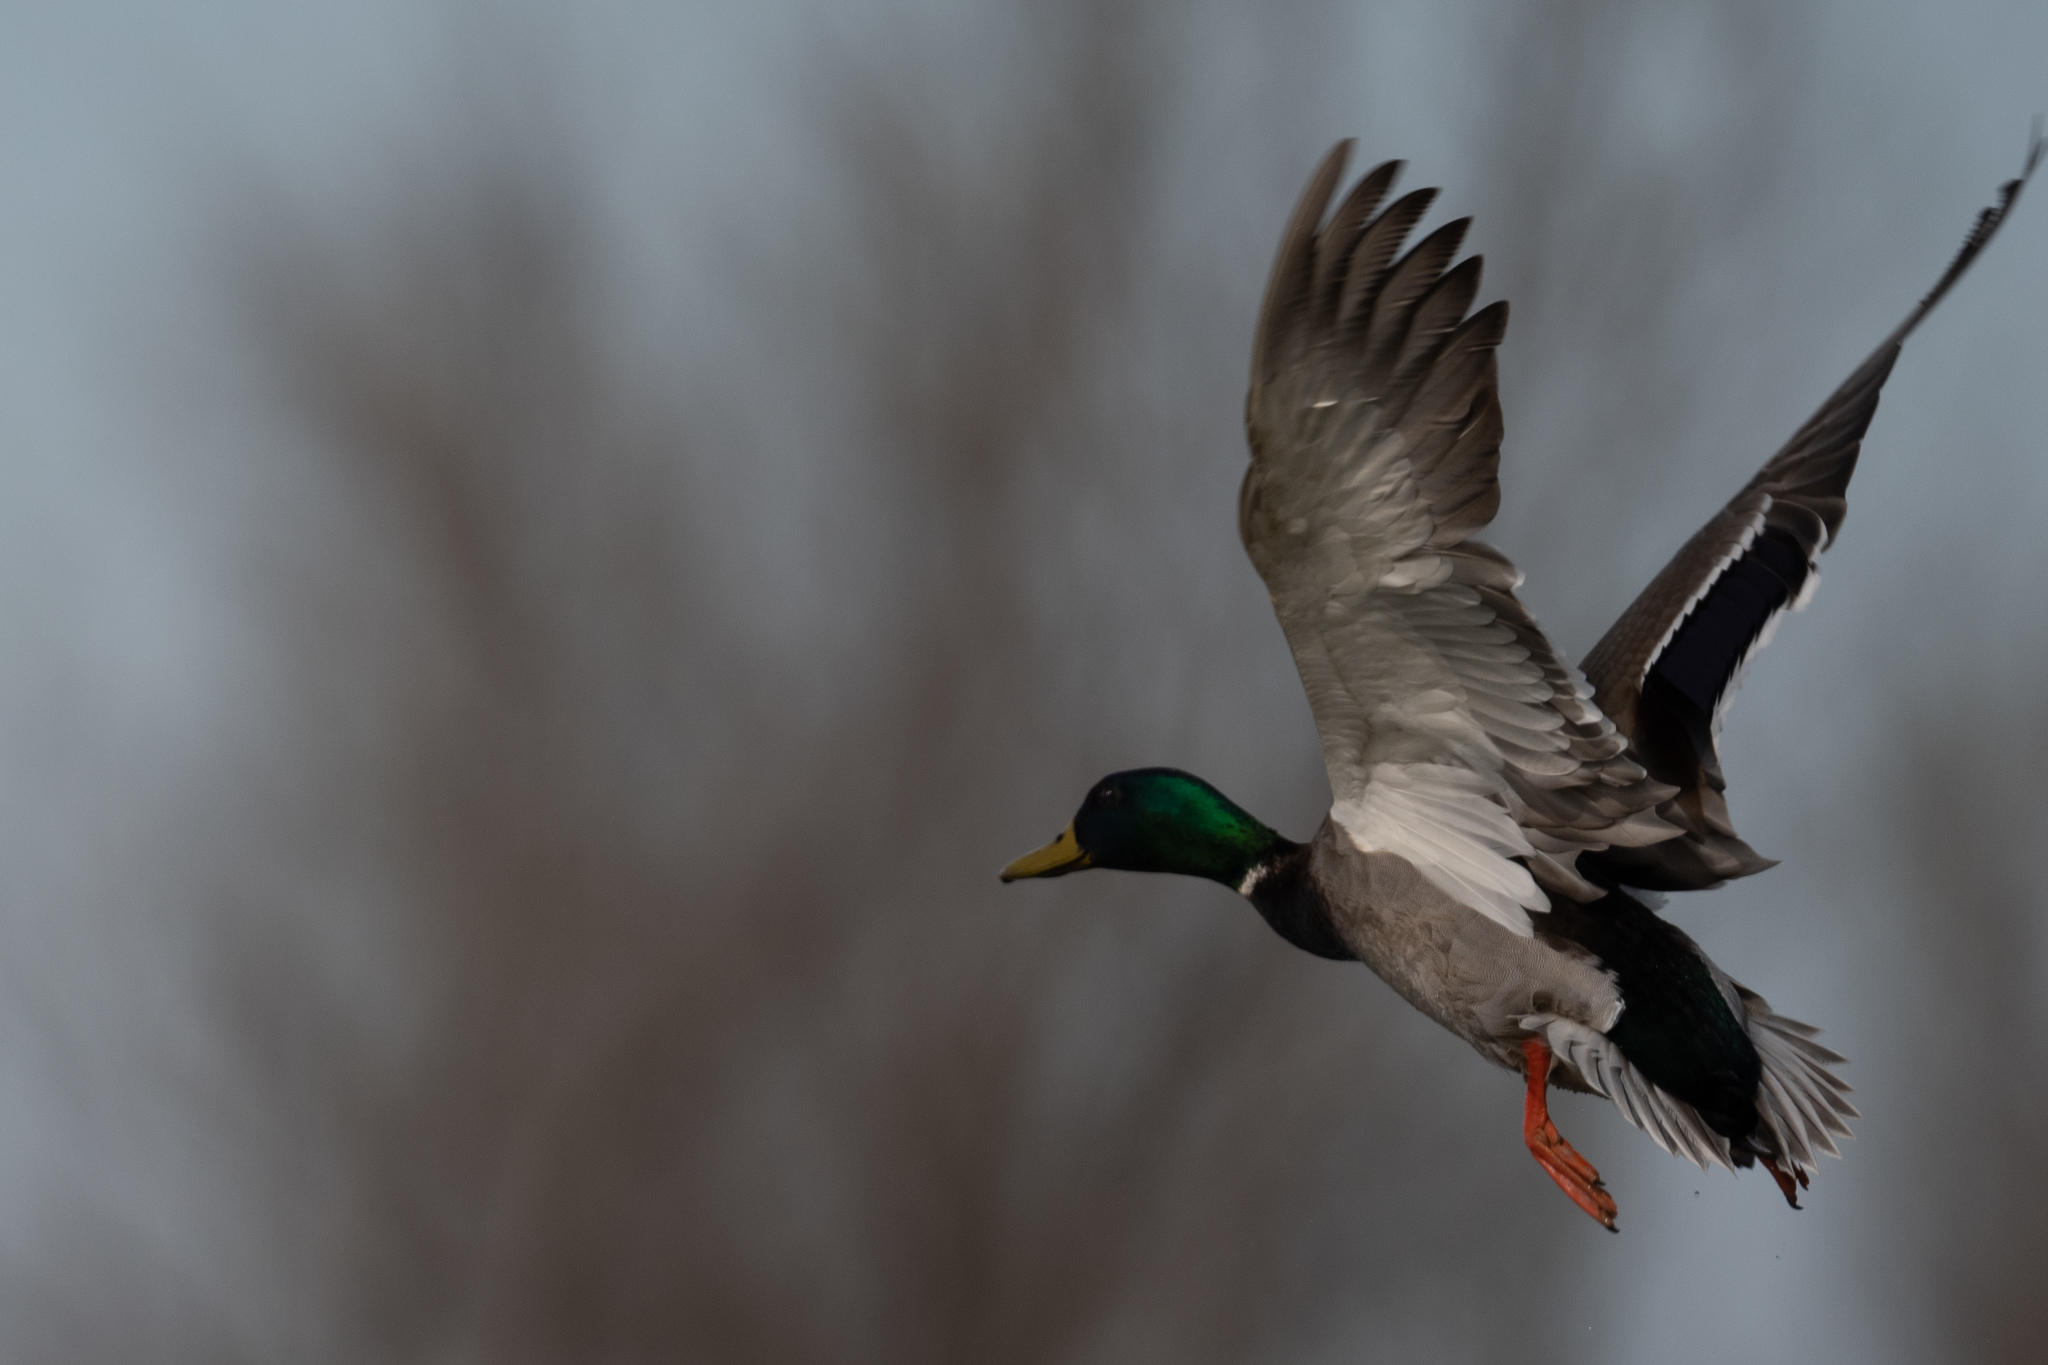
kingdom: Animalia
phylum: Chordata
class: Aves
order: Anseriformes
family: Anatidae
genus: Anas
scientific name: Anas platyrhynchos
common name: Mallard
